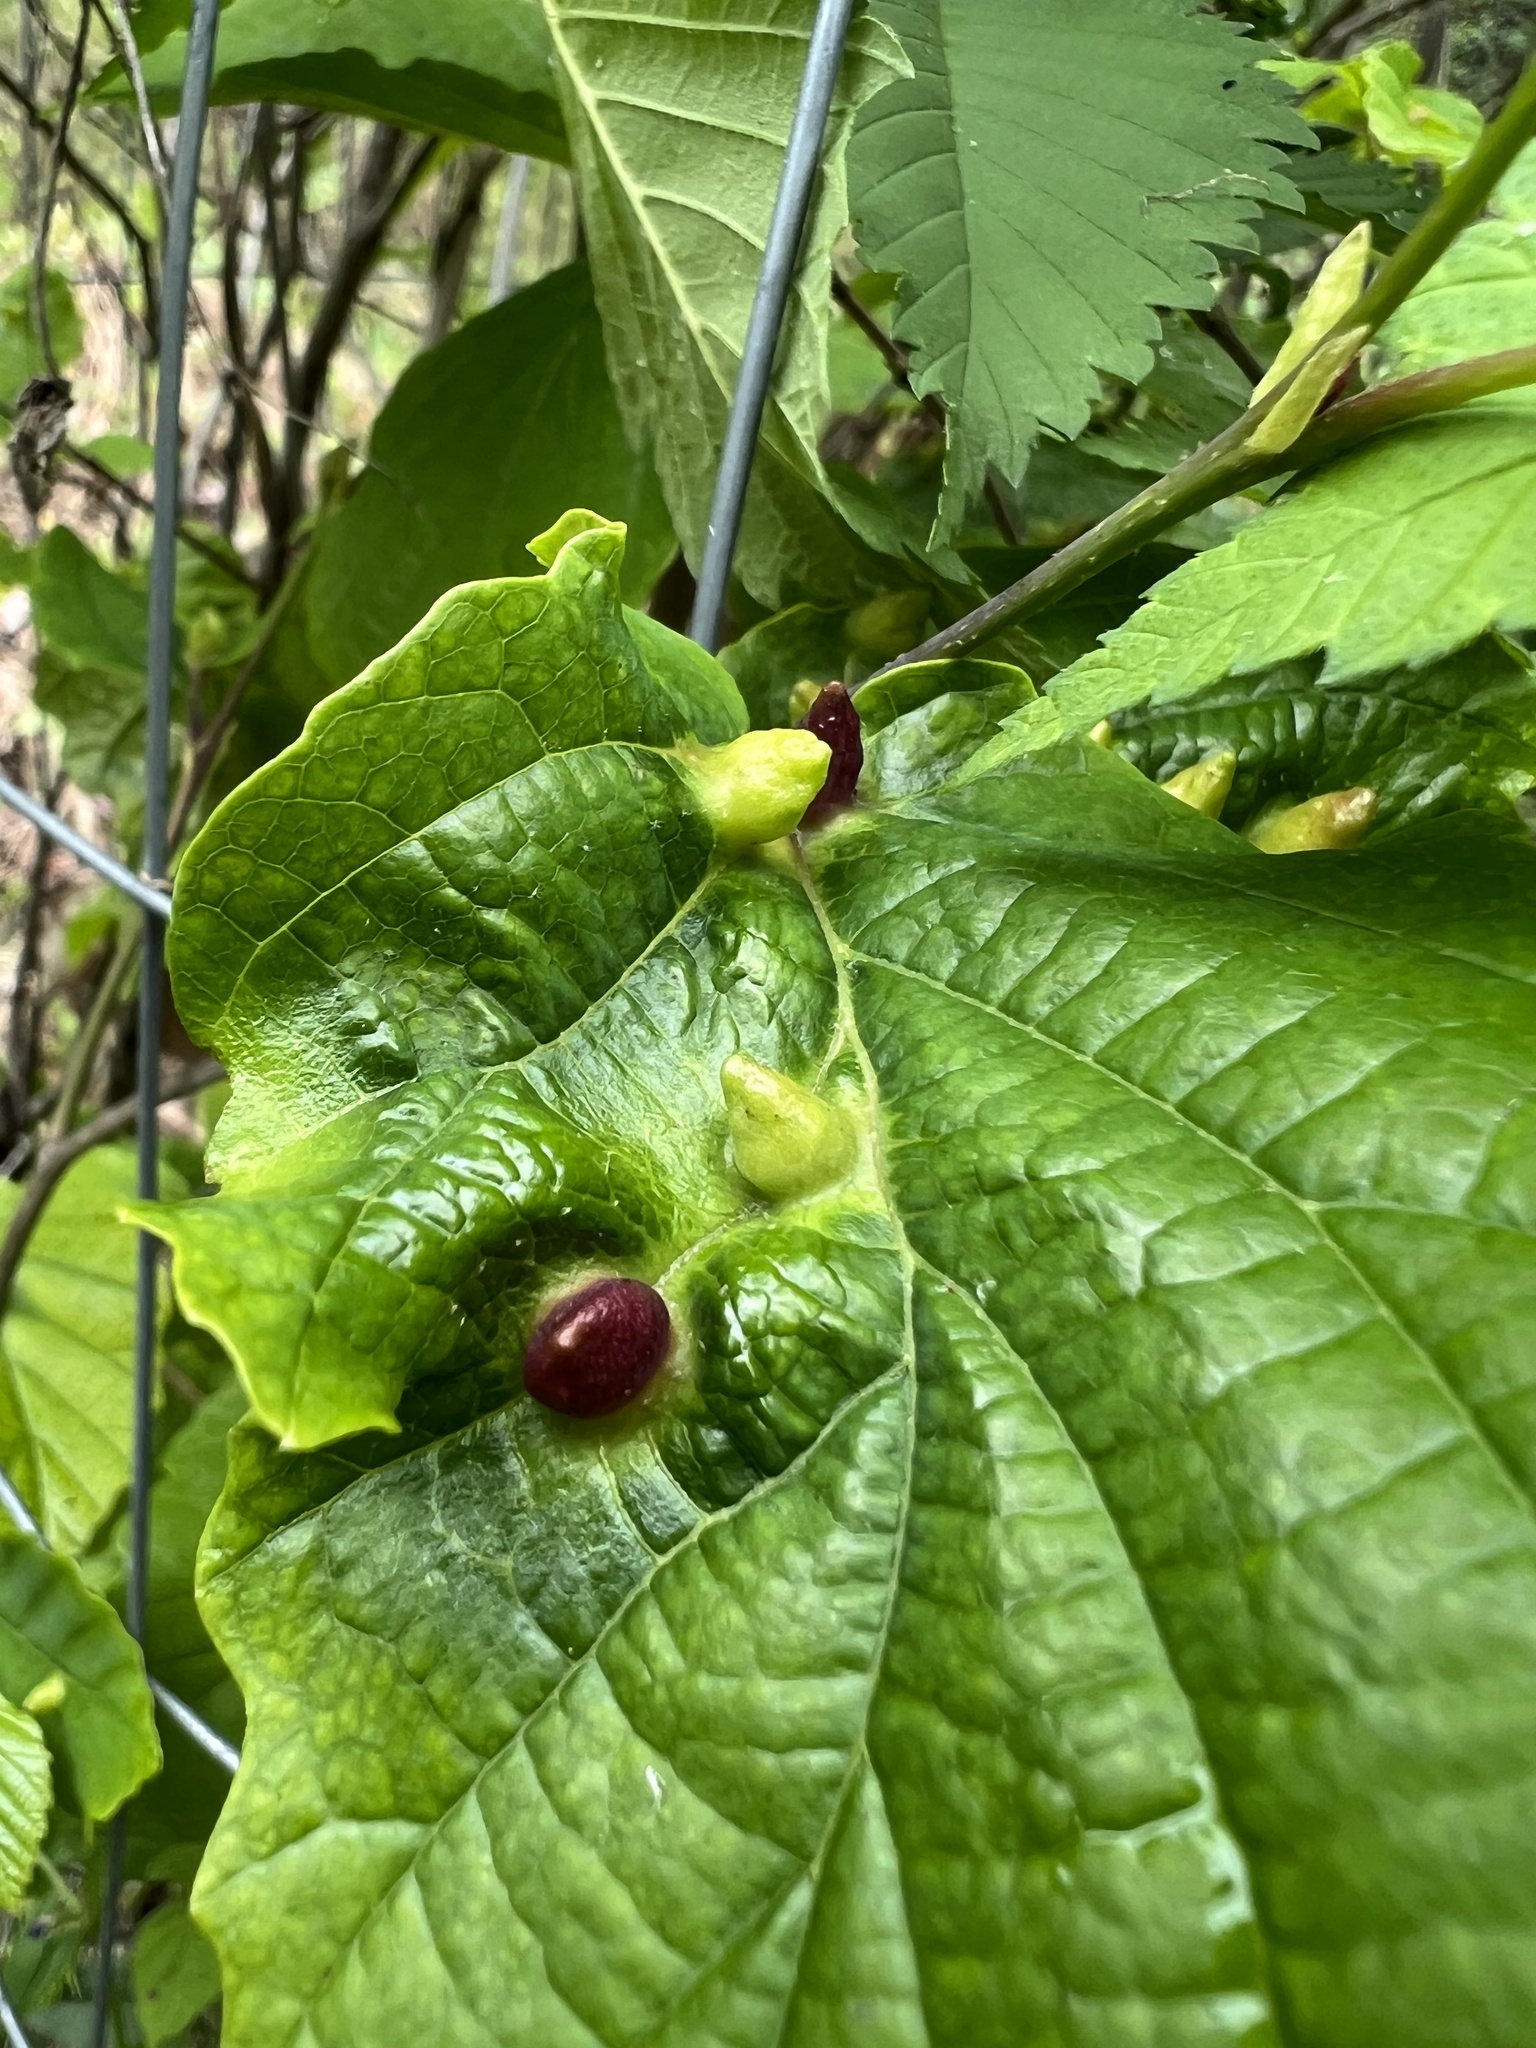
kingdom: Animalia
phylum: Arthropoda
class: Insecta
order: Hemiptera
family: Aphididae
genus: Hormaphis
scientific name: Hormaphis hamamelidis
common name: Witch-hazel cone gall aphid
